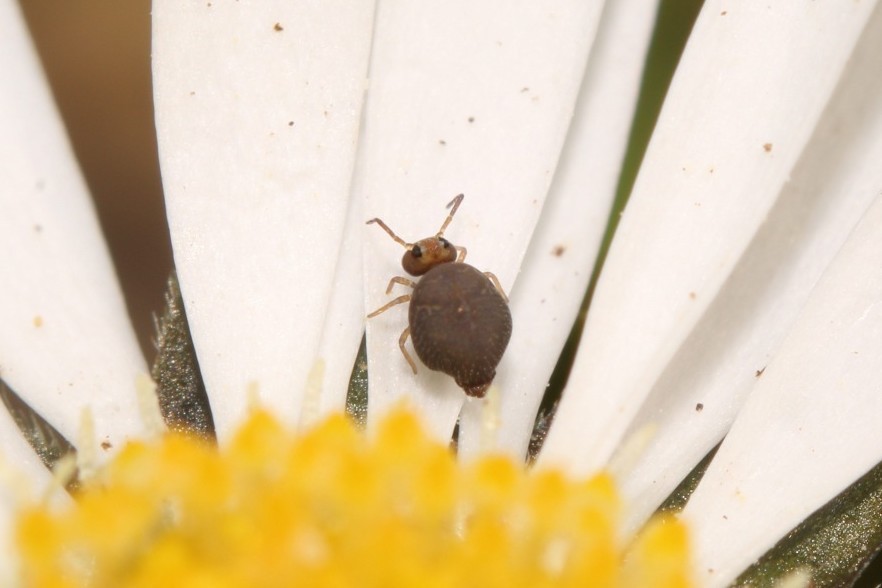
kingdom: Animalia
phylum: Arthropoda
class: Collembola
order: Symphypleona
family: Bourletiellidae
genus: Bourletiella
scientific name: Bourletiella hortensis
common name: Garden springtail
